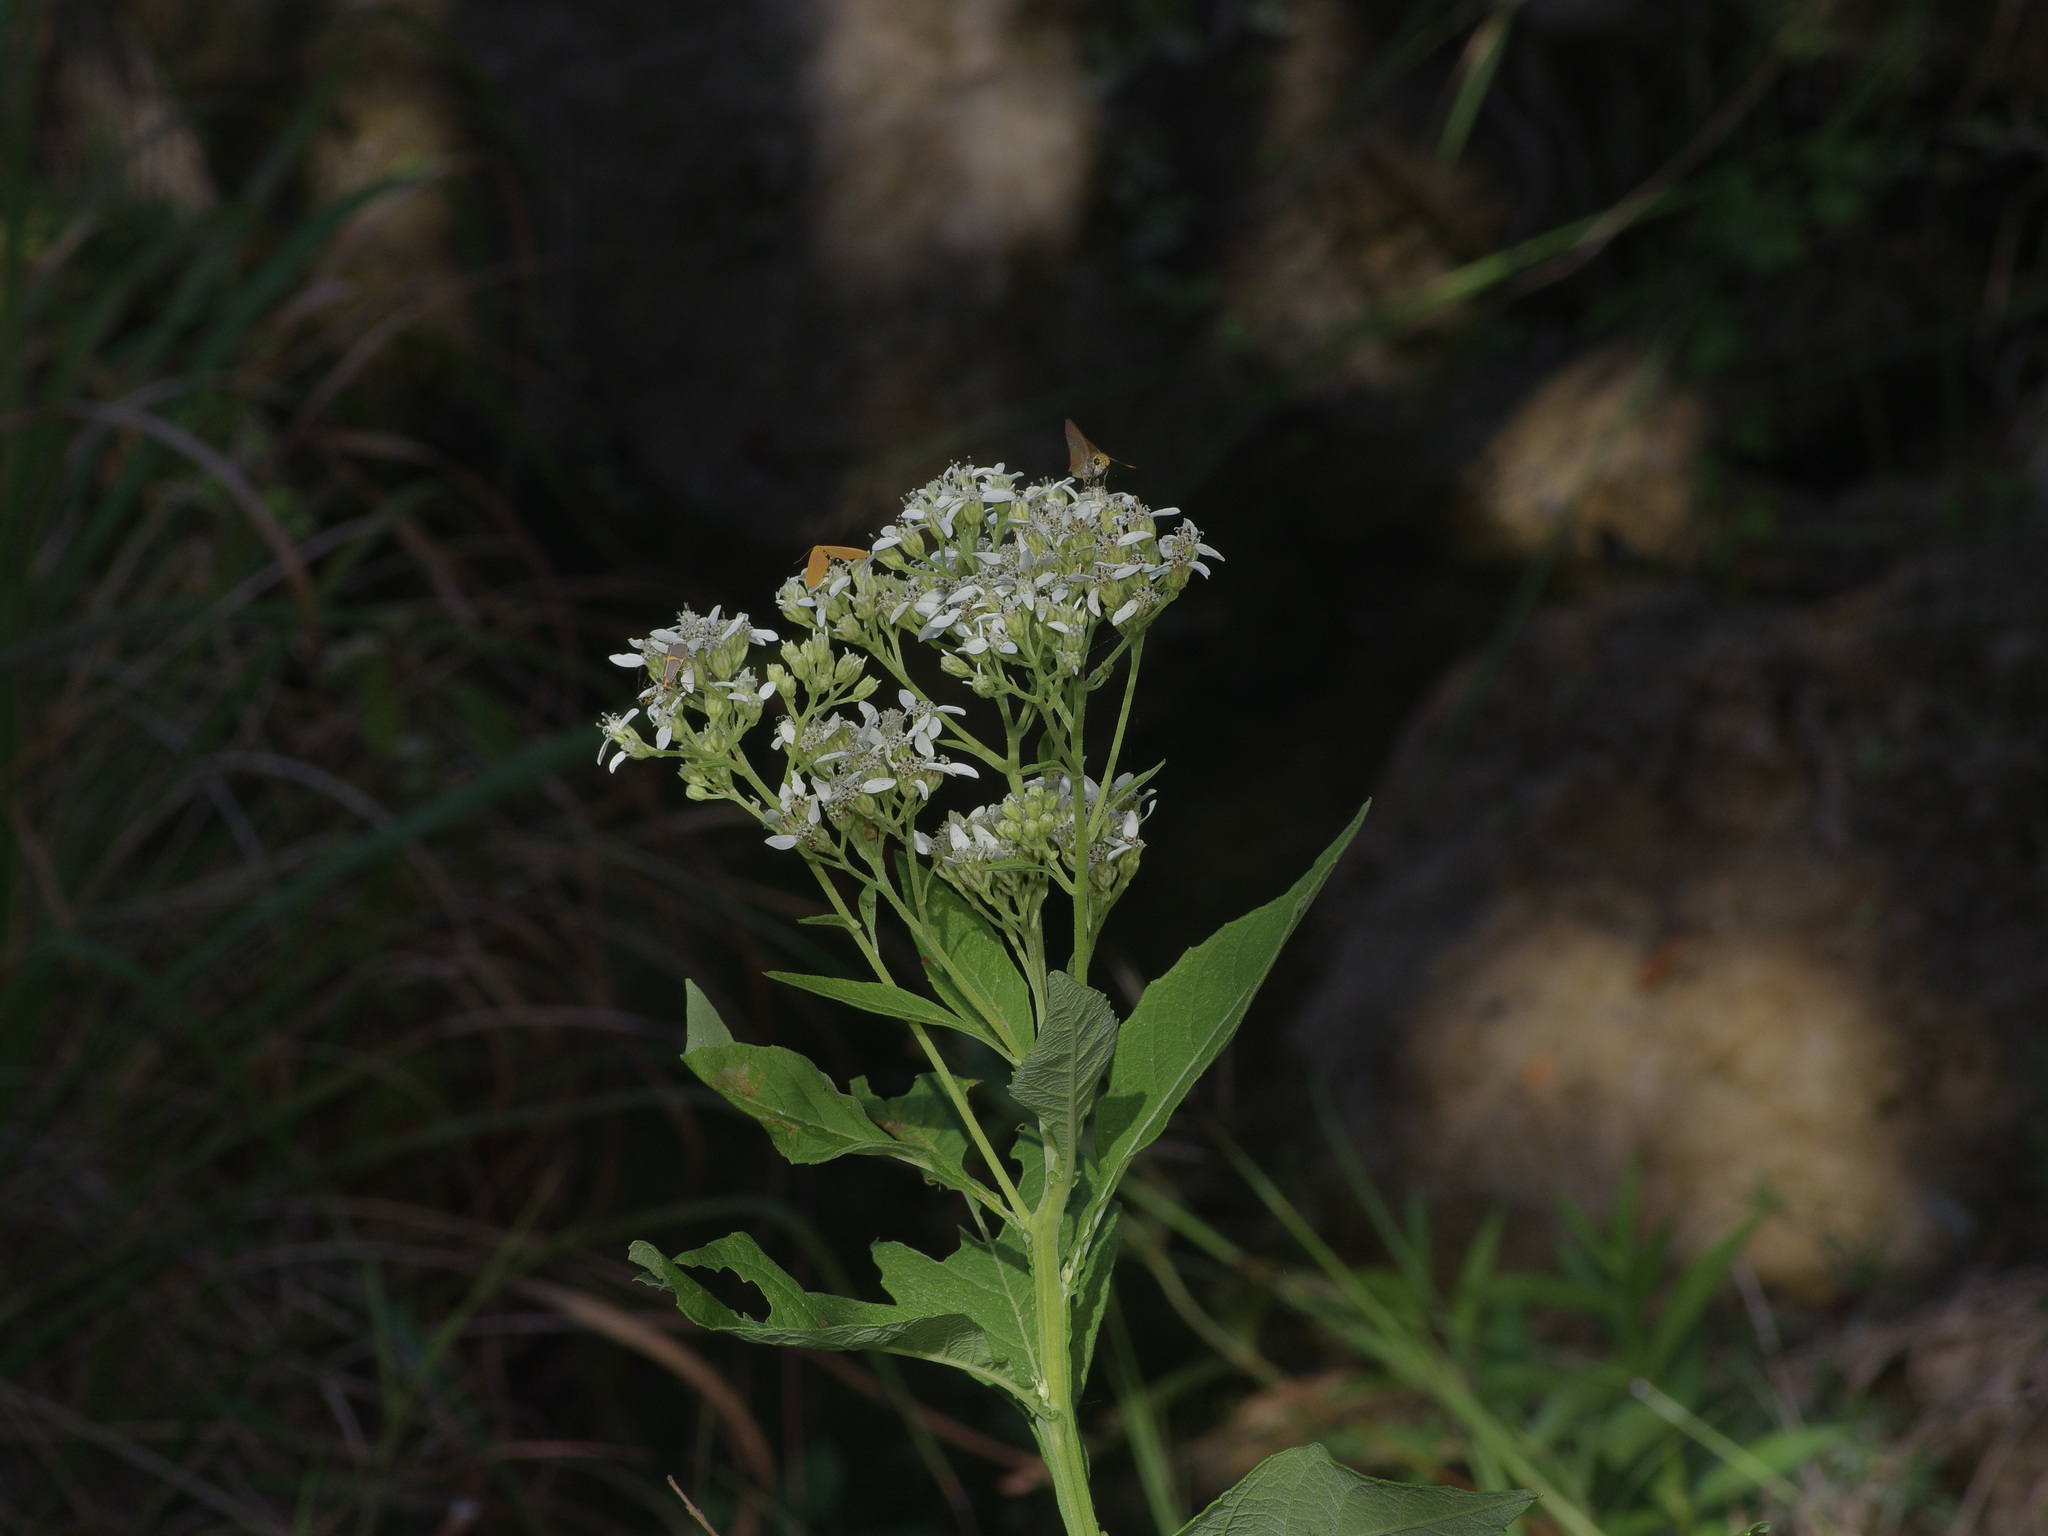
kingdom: Plantae
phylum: Tracheophyta
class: Magnoliopsida
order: Asterales
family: Asteraceae
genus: Verbesina
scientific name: Verbesina virginica
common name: Frostweed
